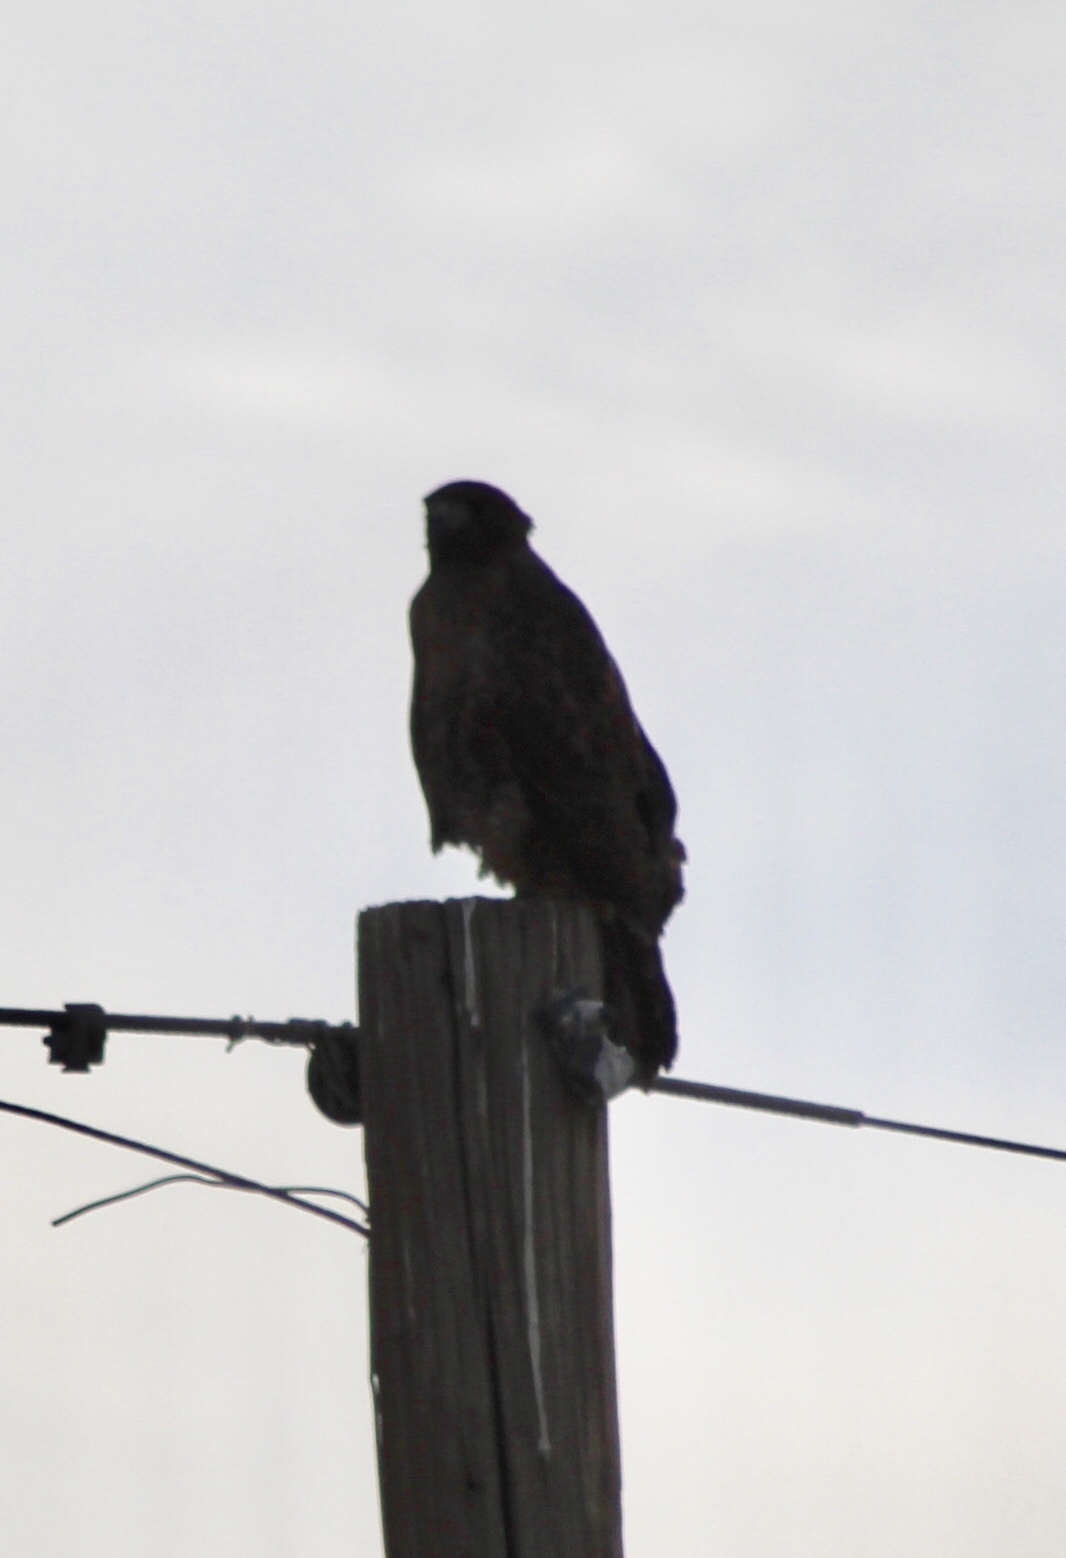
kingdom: Animalia
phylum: Chordata
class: Aves
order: Accipitriformes
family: Accipitridae
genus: Buteo
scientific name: Buteo jamaicensis
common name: Red-tailed hawk
